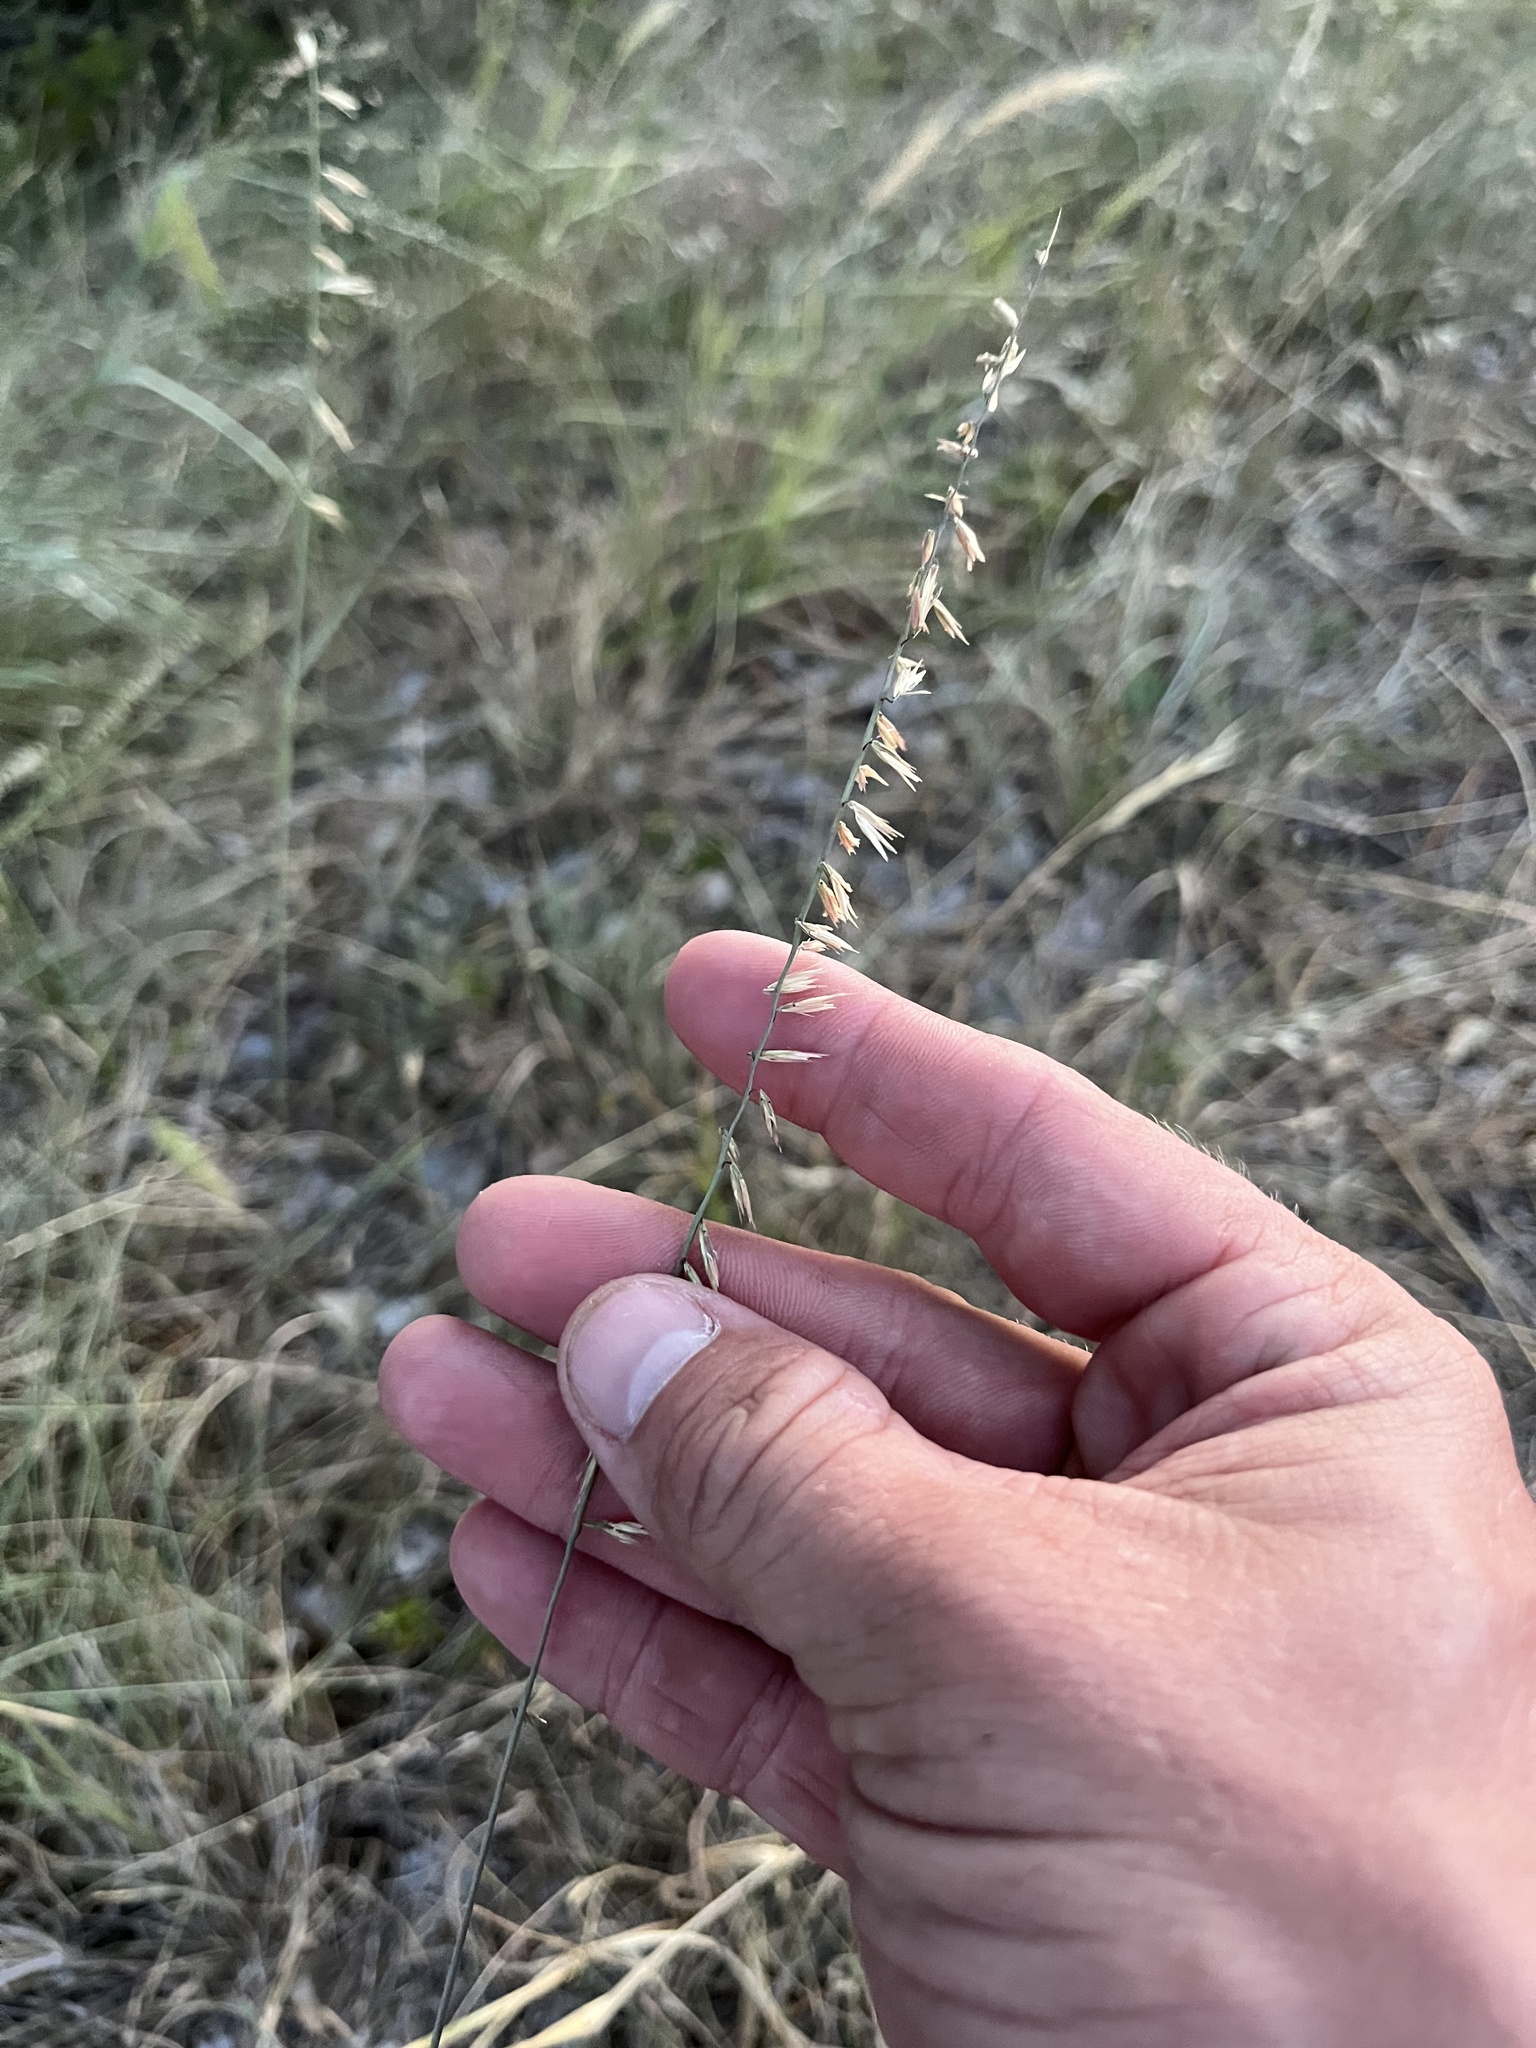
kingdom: Plantae
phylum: Tracheophyta
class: Liliopsida
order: Poales
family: Poaceae
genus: Bouteloua
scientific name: Bouteloua curtipendula
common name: Side-oats grama
